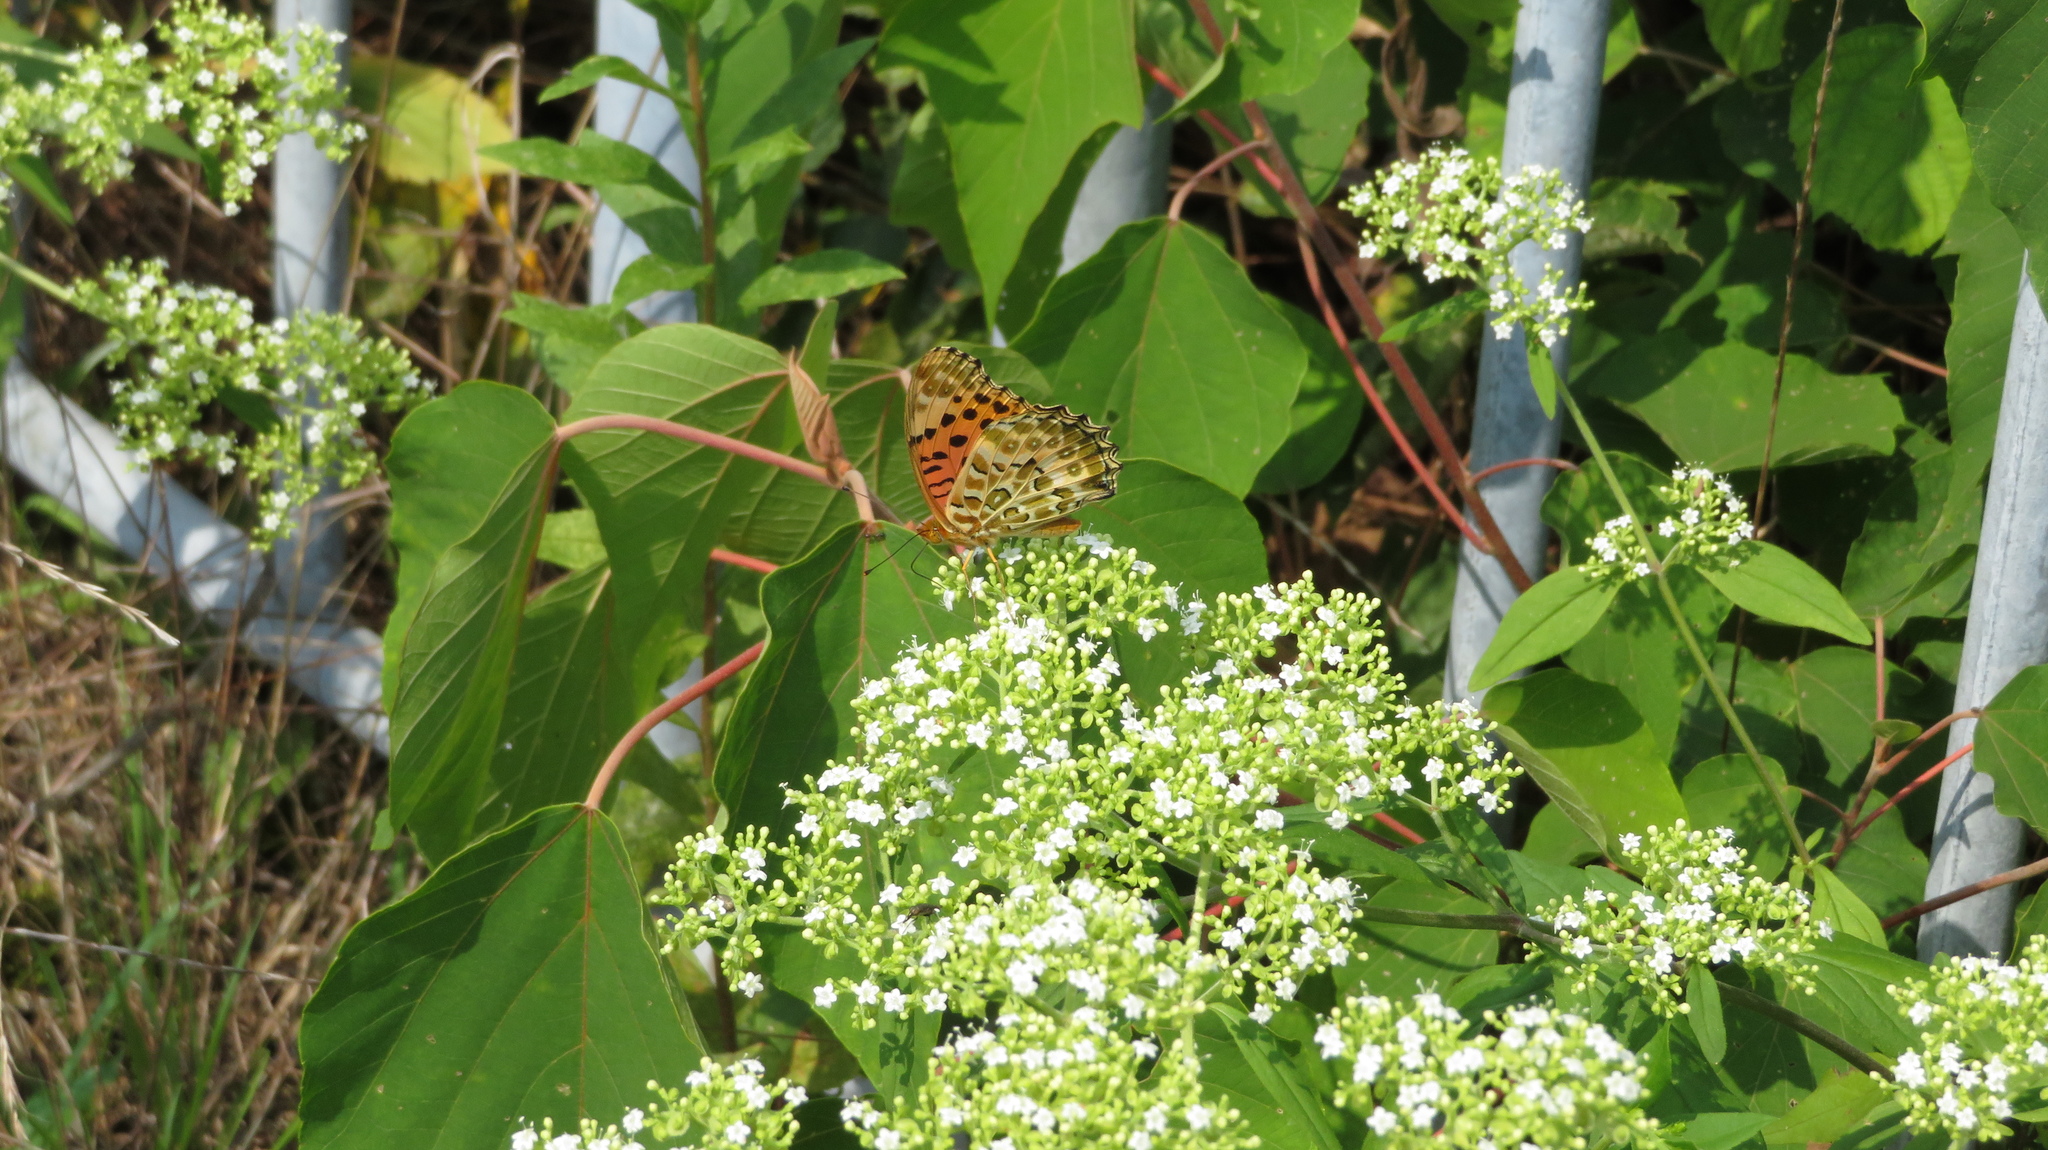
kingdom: Animalia
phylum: Arthropoda
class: Insecta
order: Lepidoptera
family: Nymphalidae
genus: Argynnis
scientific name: Argynnis hyperbius
